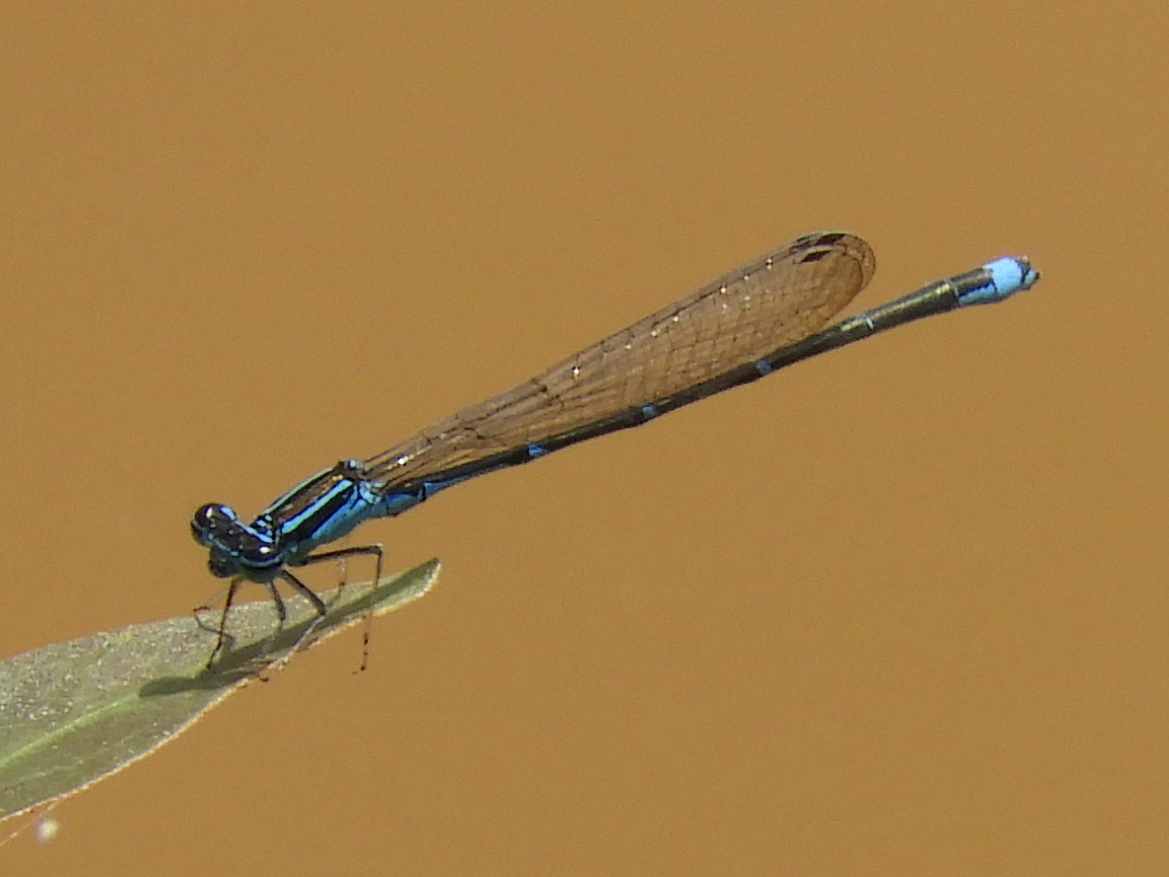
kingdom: Animalia
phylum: Arthropoda
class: Insecta
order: Odonata
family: Coenagrionidae
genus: Enallagma
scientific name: Enallagma exsulans
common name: Stream bluet
